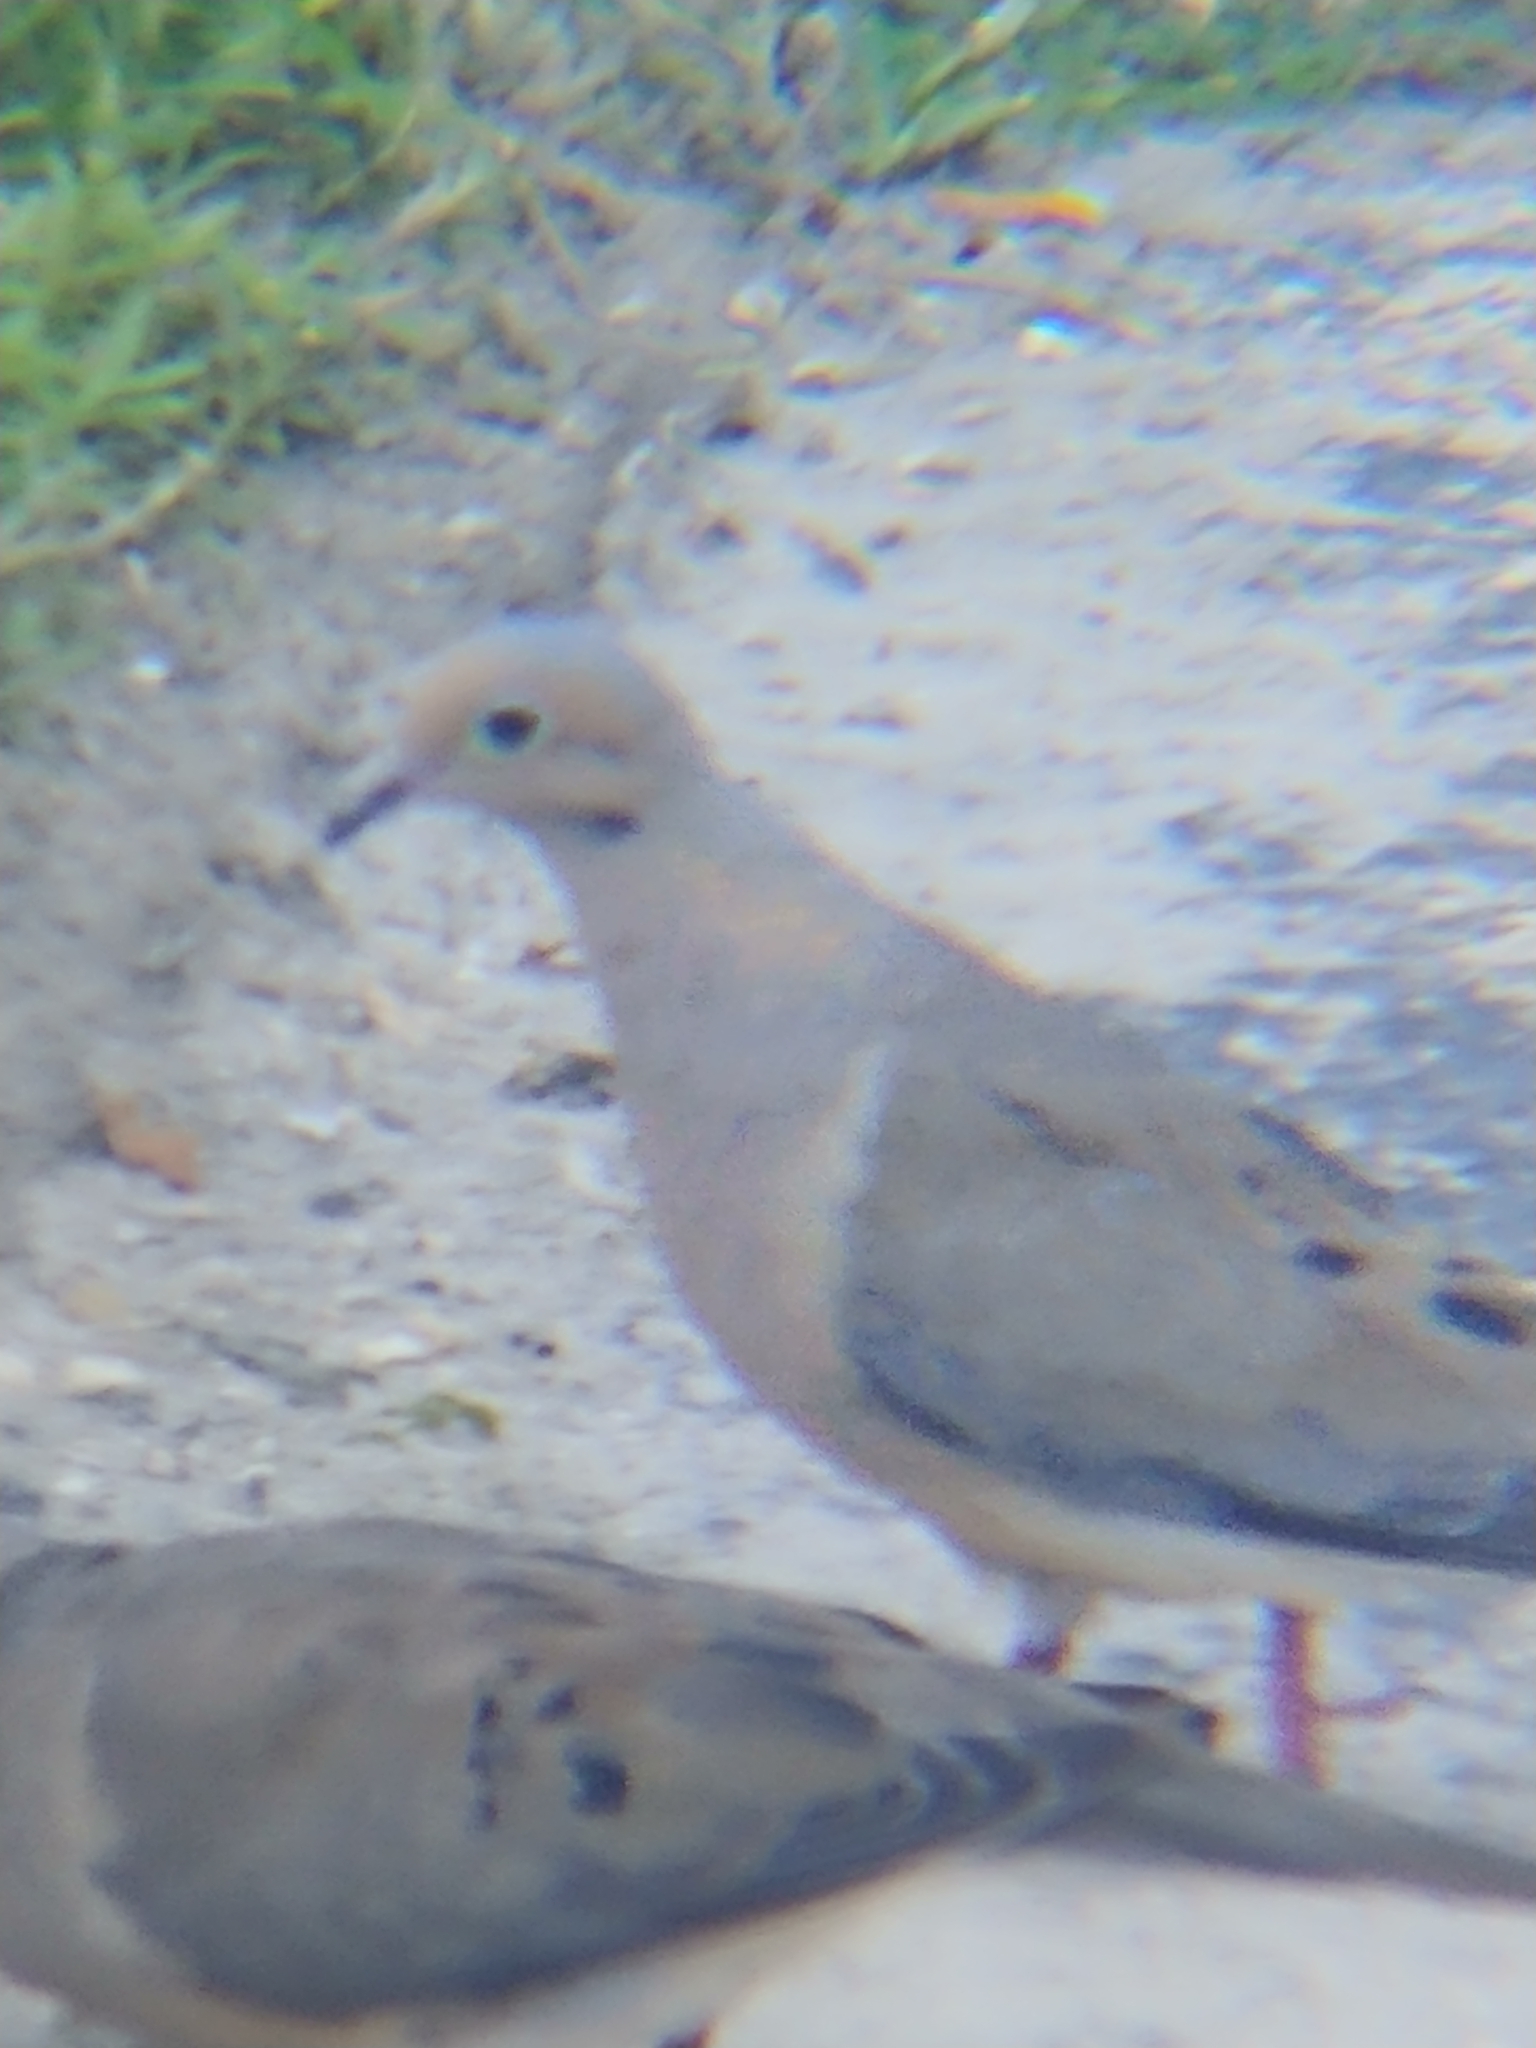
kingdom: Animalia
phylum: Chordata
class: Aves
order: Columbiformes
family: Columbidae
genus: Zenaida
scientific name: Zenaida macroura
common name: Mourning dove
